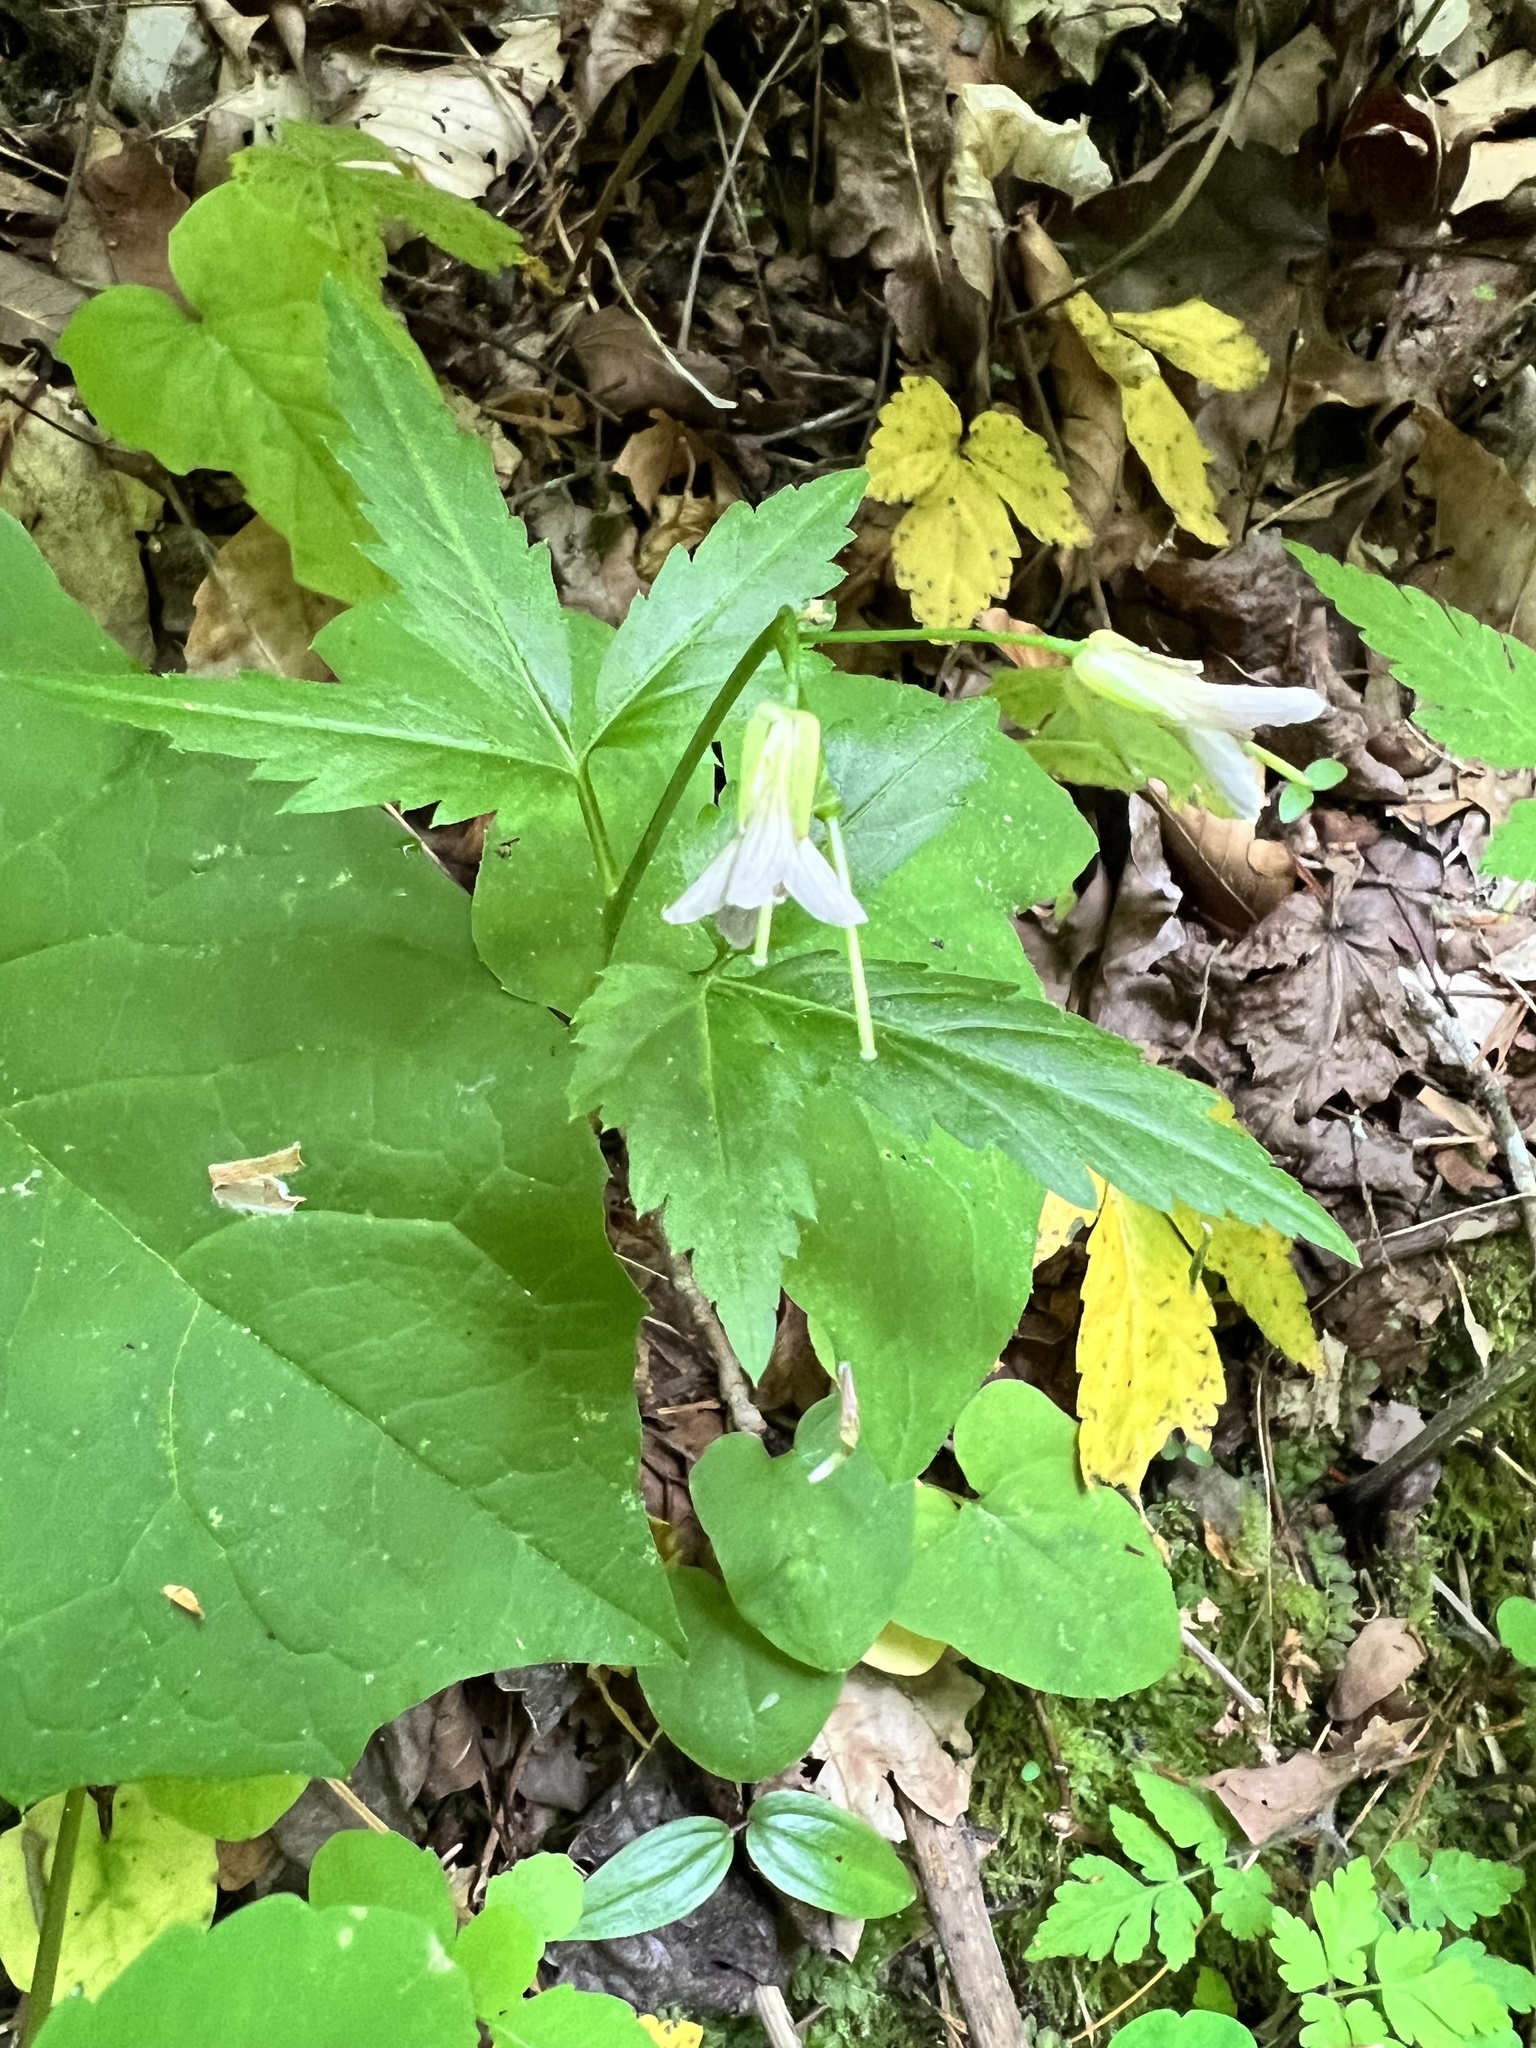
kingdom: Plantae
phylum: Tracheophyta
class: Magnoliopsida
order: Brassicales
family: Brassicaceae
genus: Cardamine
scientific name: Cardamine diphylla
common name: Broad-leaved toothwort
